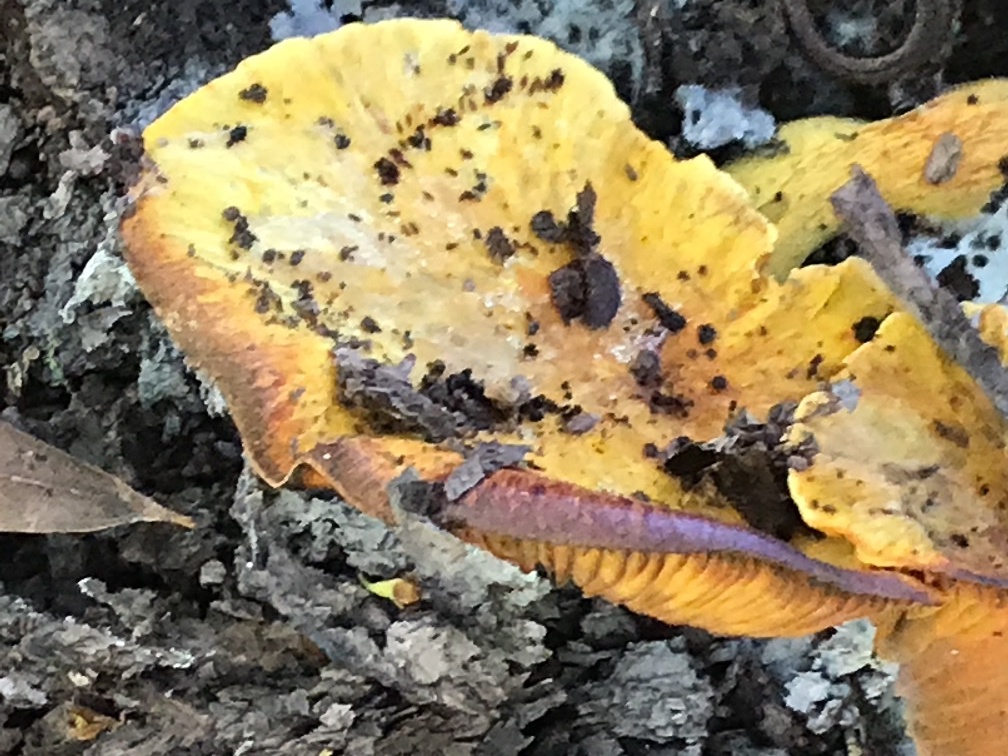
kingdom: Fungi
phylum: Basidiomycota
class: Agaricomycetes
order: Agaricales
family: Omphalotaceae
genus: Omphalotus
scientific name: Omphalotus olivascens
